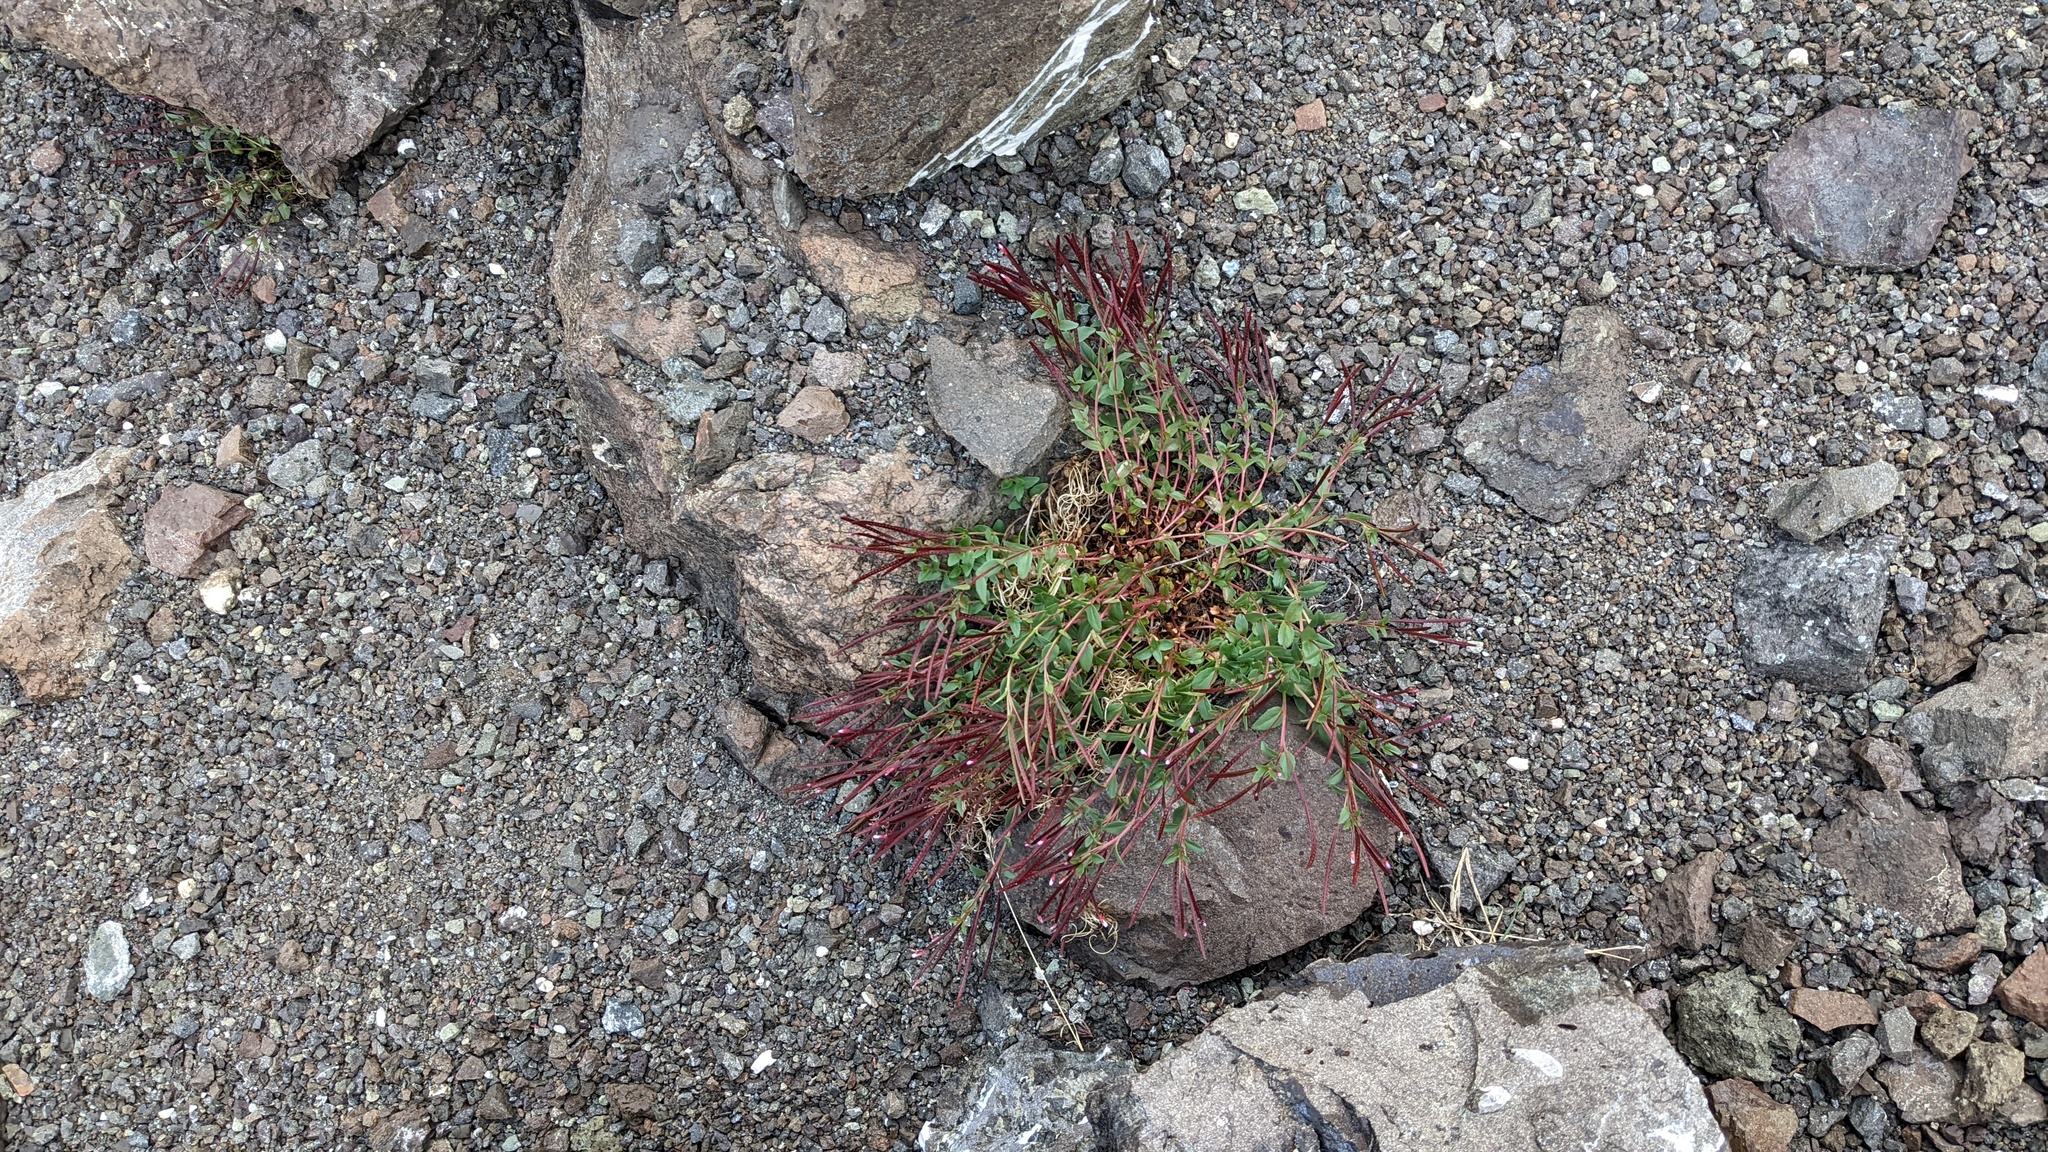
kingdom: Plantae
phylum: Tracheophyta
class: Magnoliopsida
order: Myrtales
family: Onagraceae
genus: Epilobium
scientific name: Epilobium anagallidifolium
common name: Alpine willowherb
